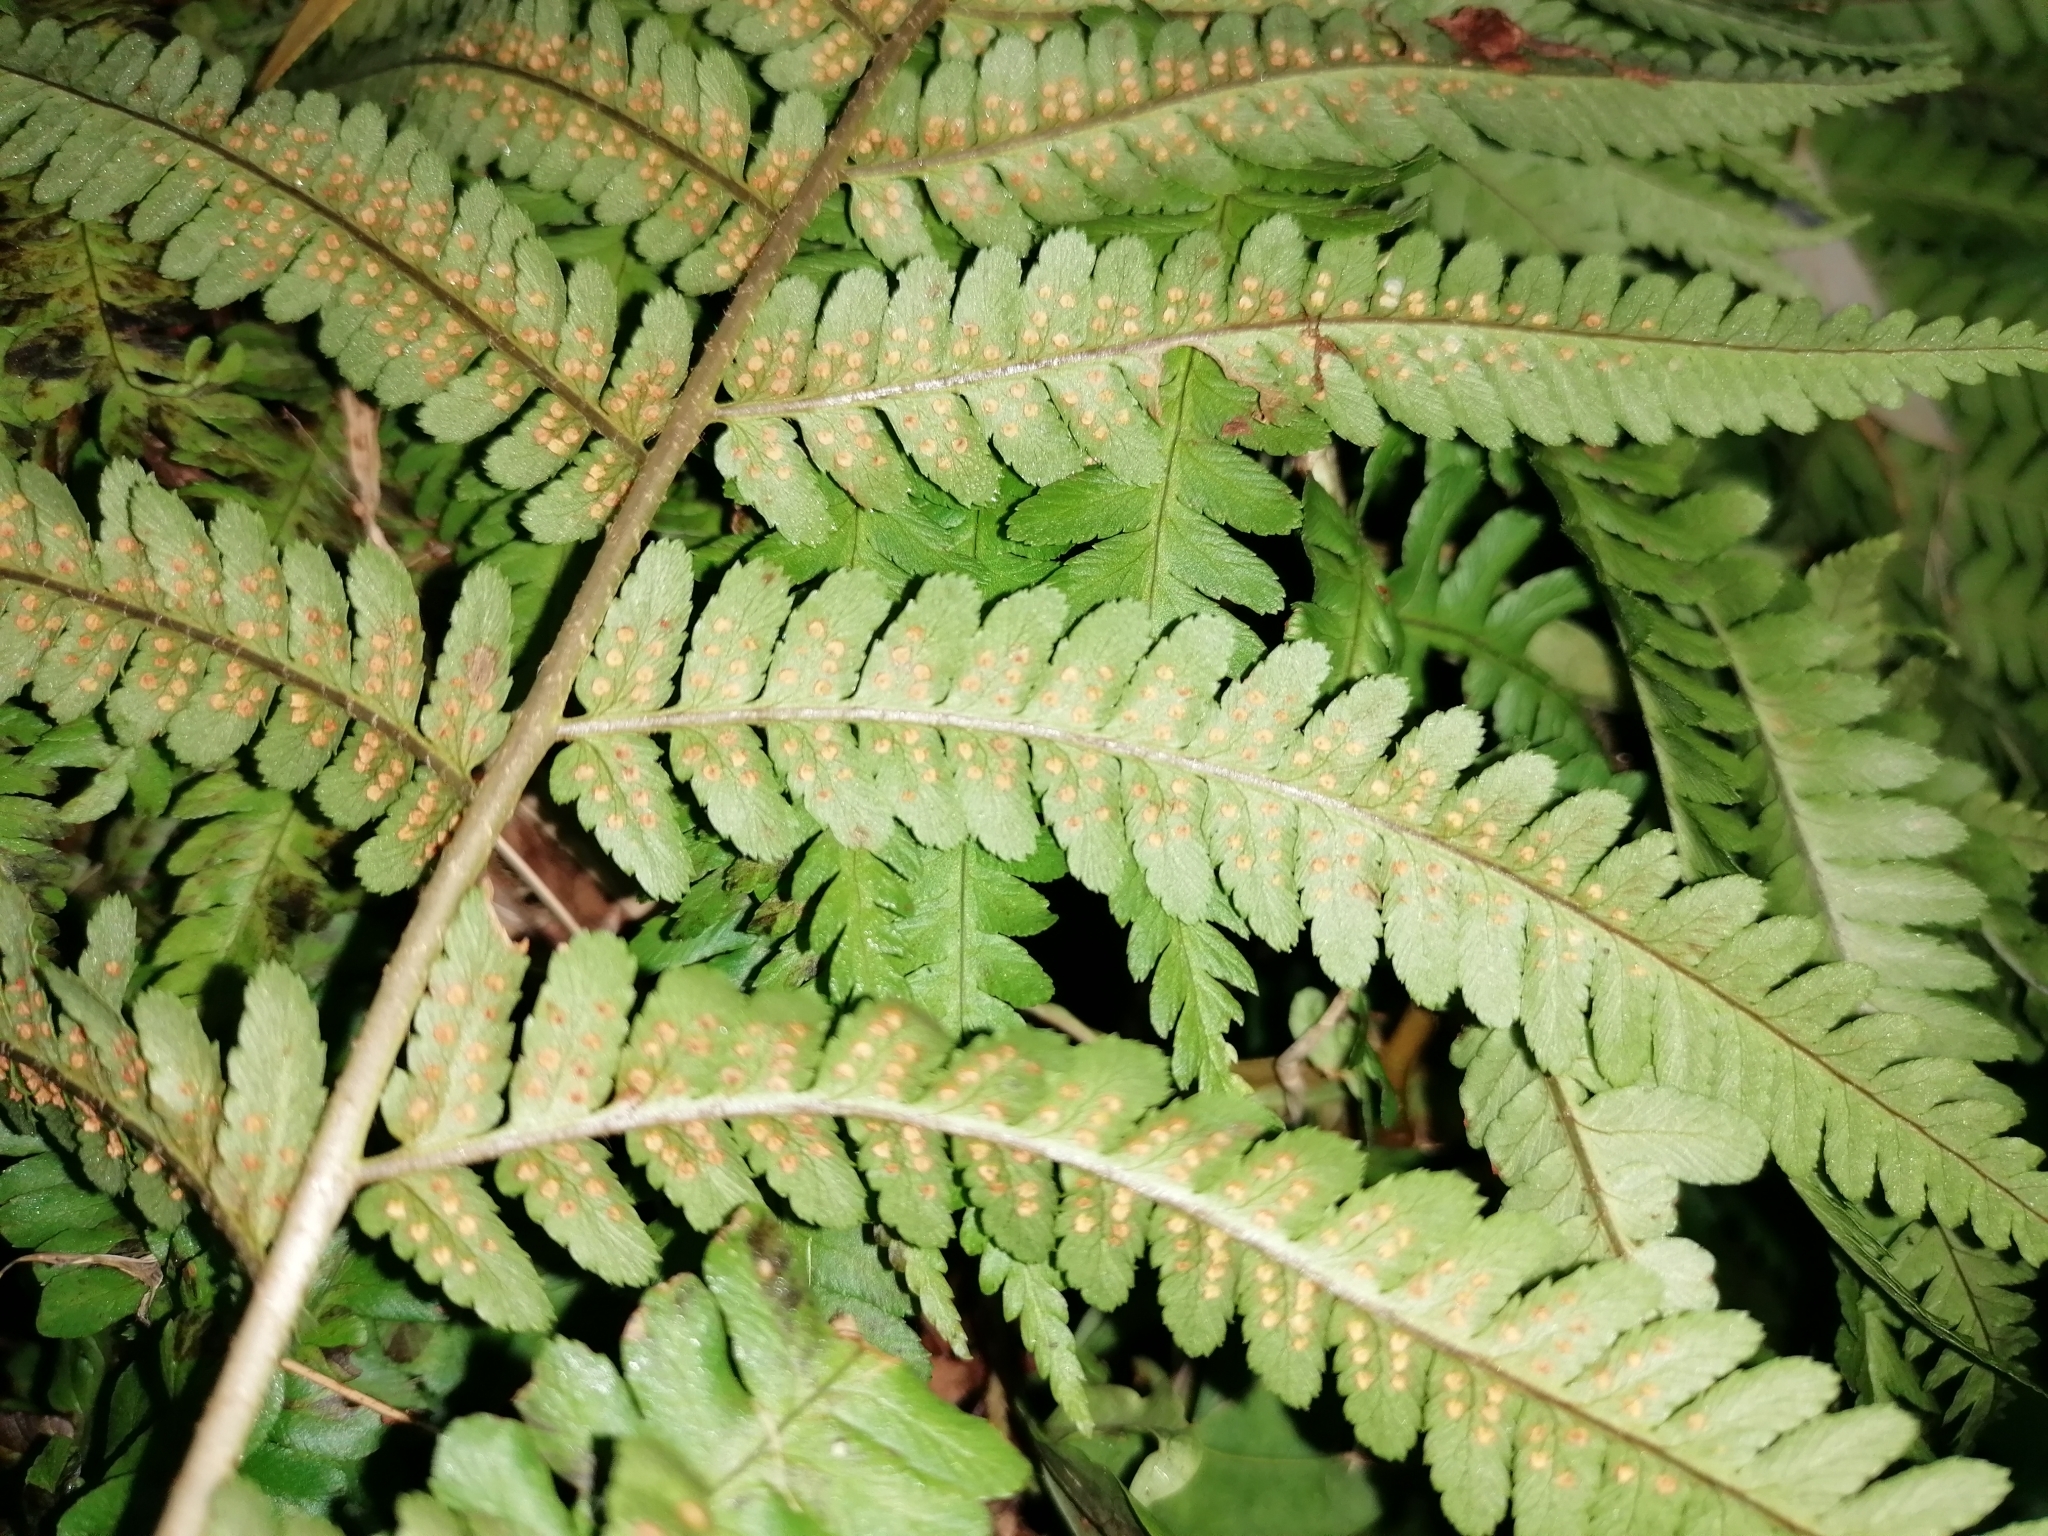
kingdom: Plantae
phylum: Tracheophyta
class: Polypodiopsida
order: Polypodiales
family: Dryopteridaceae
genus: Dryopteris
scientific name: Dryopteris filix-mas
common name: Male fern
